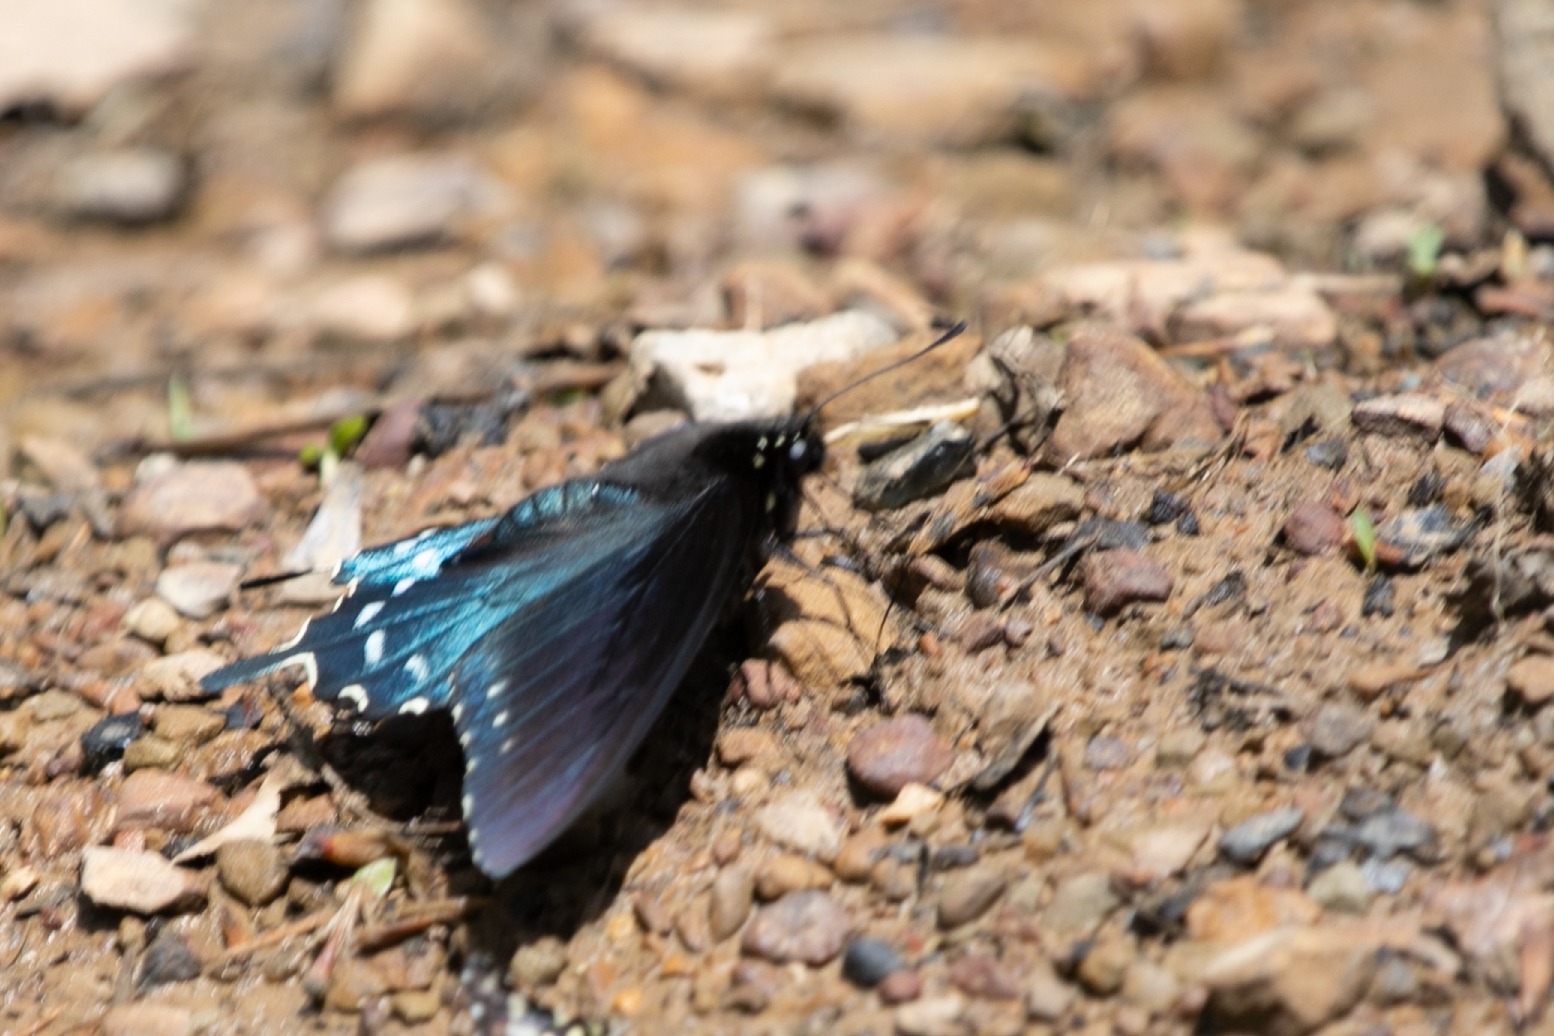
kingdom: Animalia
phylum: Arthropoda
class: Insecta
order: Lepidoptera
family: Papilionidae
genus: Battus
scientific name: Battus philenor
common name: Pipevine swallowtail
